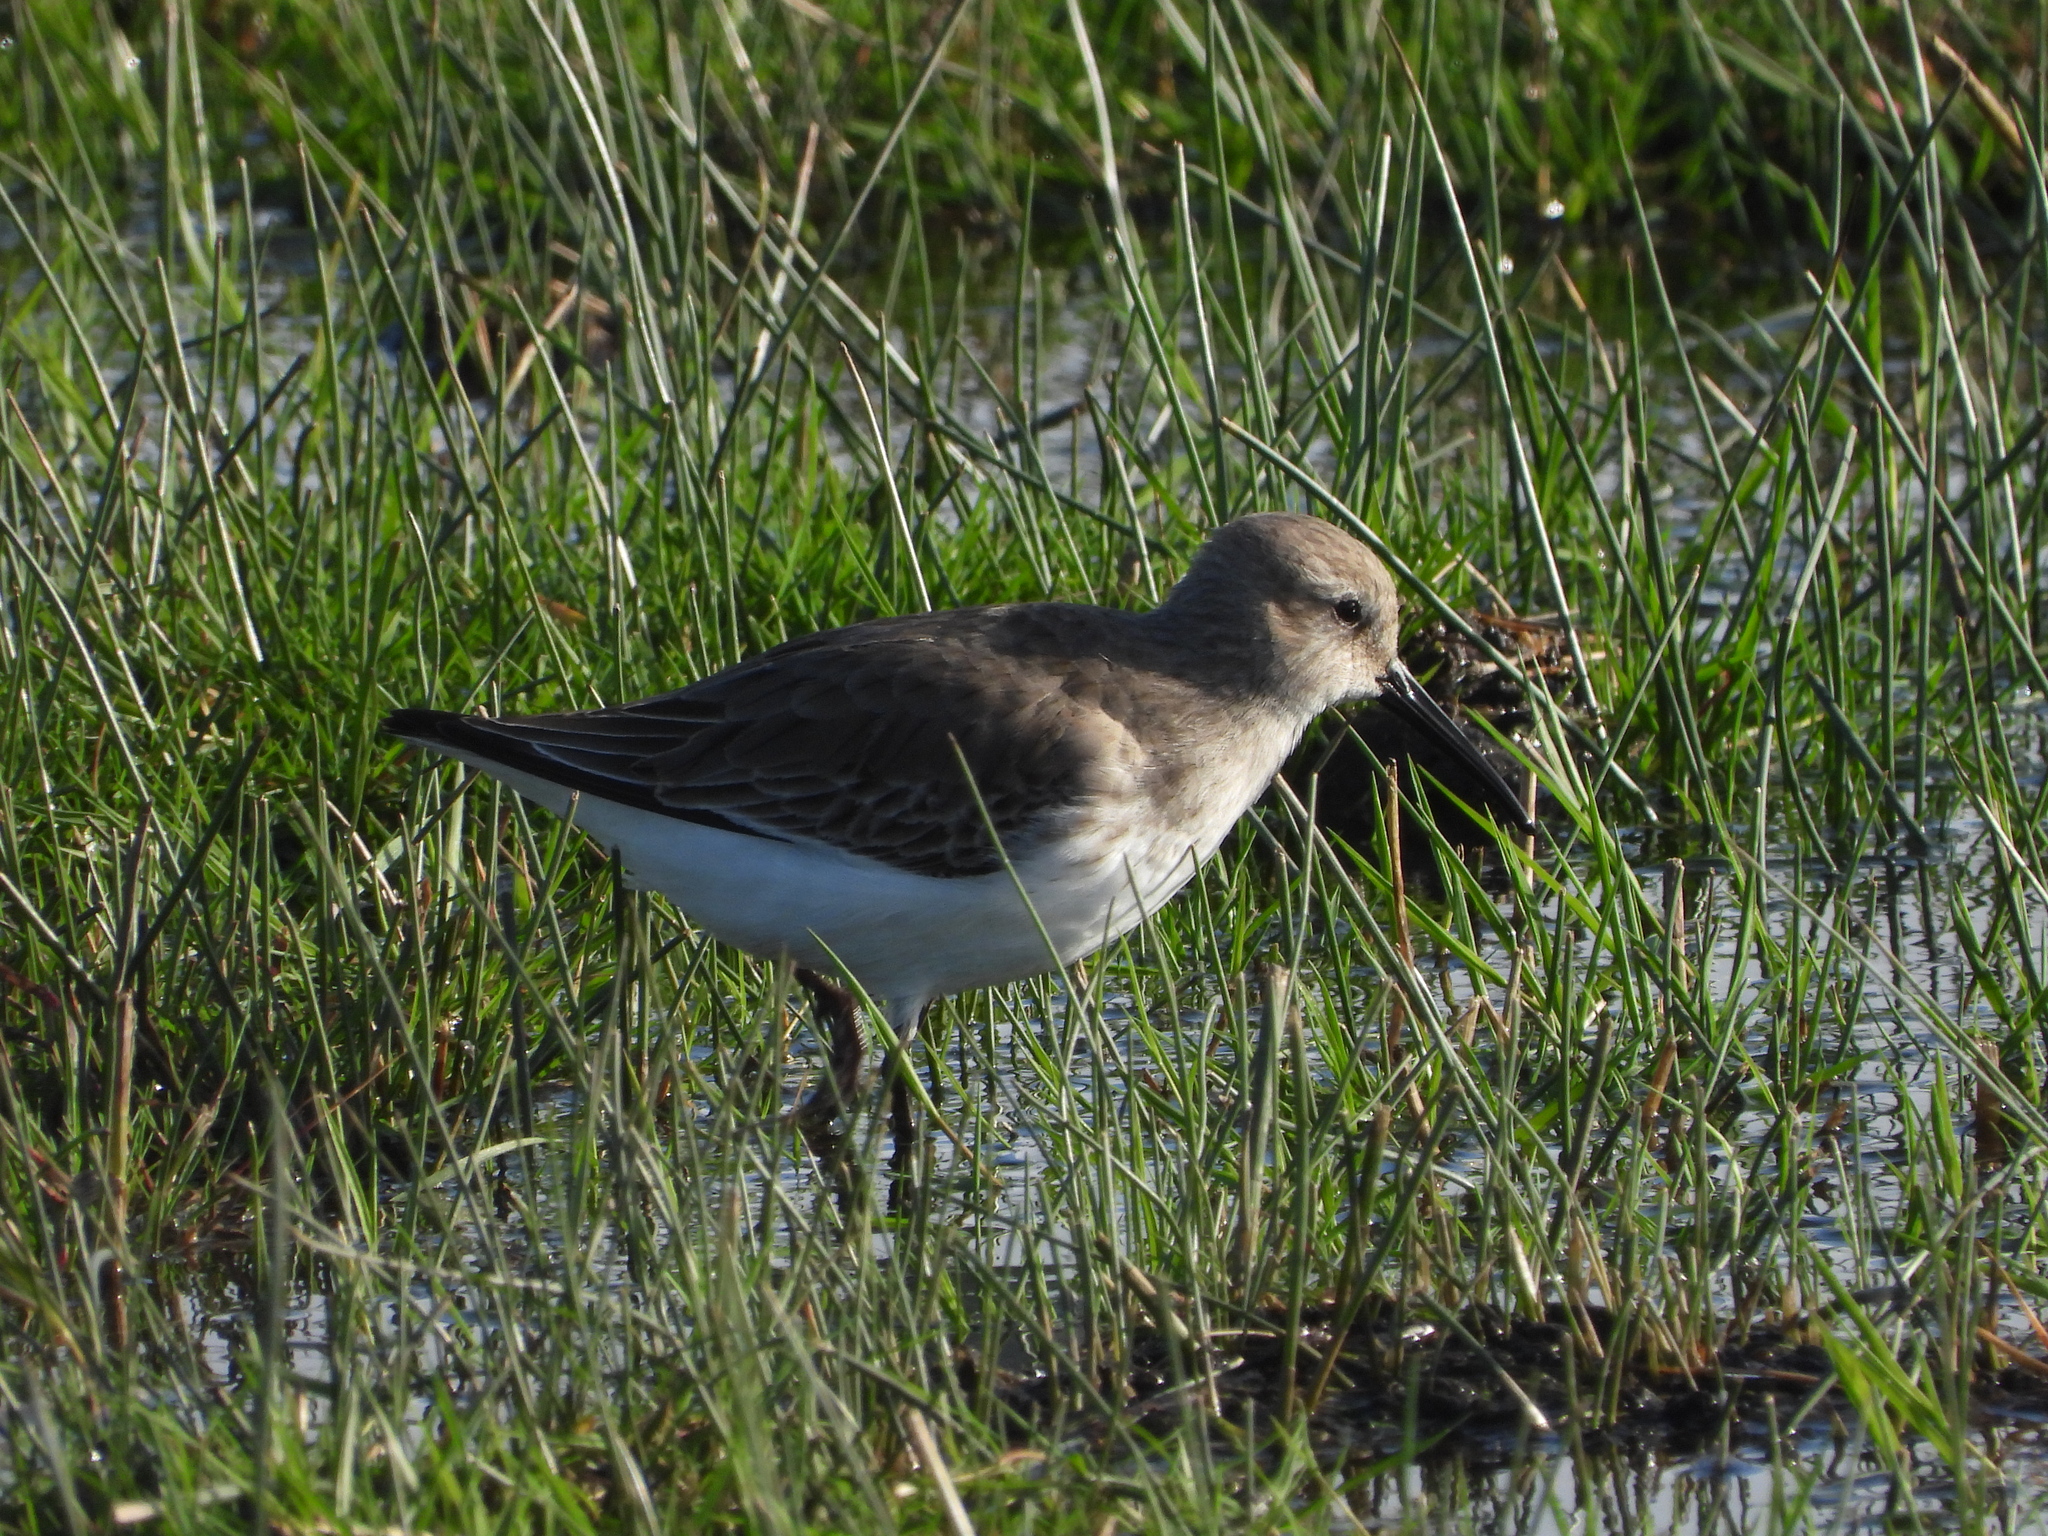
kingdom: Animalia
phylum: Chordata
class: Aves
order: Charadriiformes
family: Scolopacidae
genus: Calidris
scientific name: Calidris alpina
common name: Dunlin
